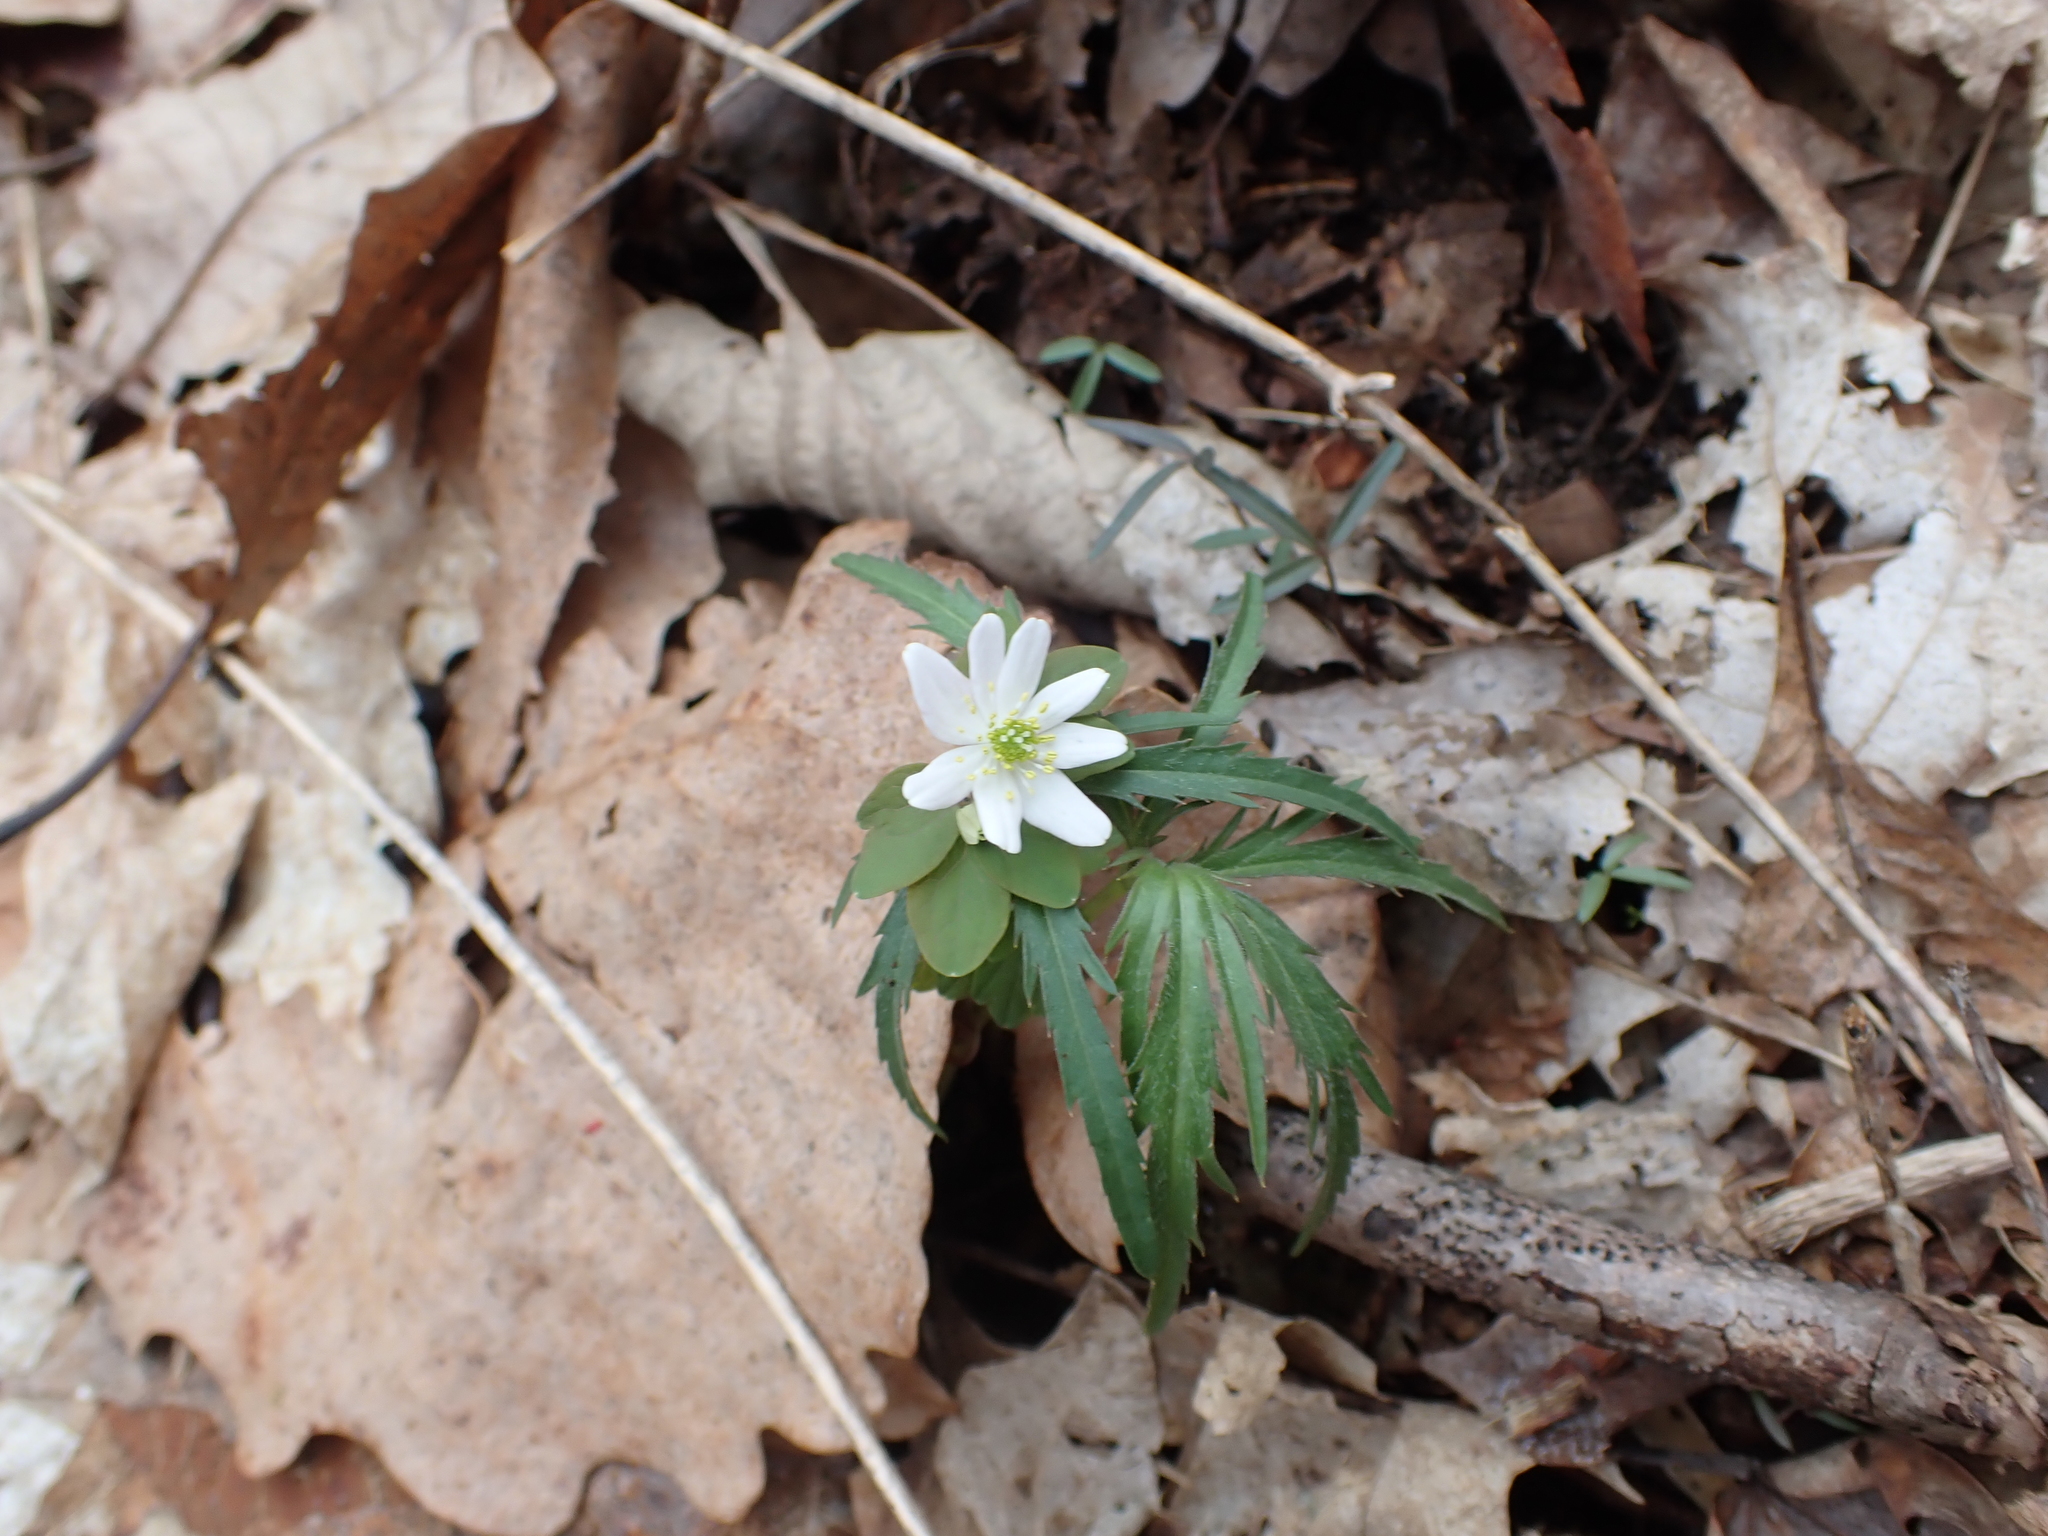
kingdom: Plantae
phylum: Tracheophyta
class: Magnoliopsida
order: Ranunculales
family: Ranunculaceae
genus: Thalictrum
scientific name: Thalictrum thalictroides
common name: Rue-anemone
